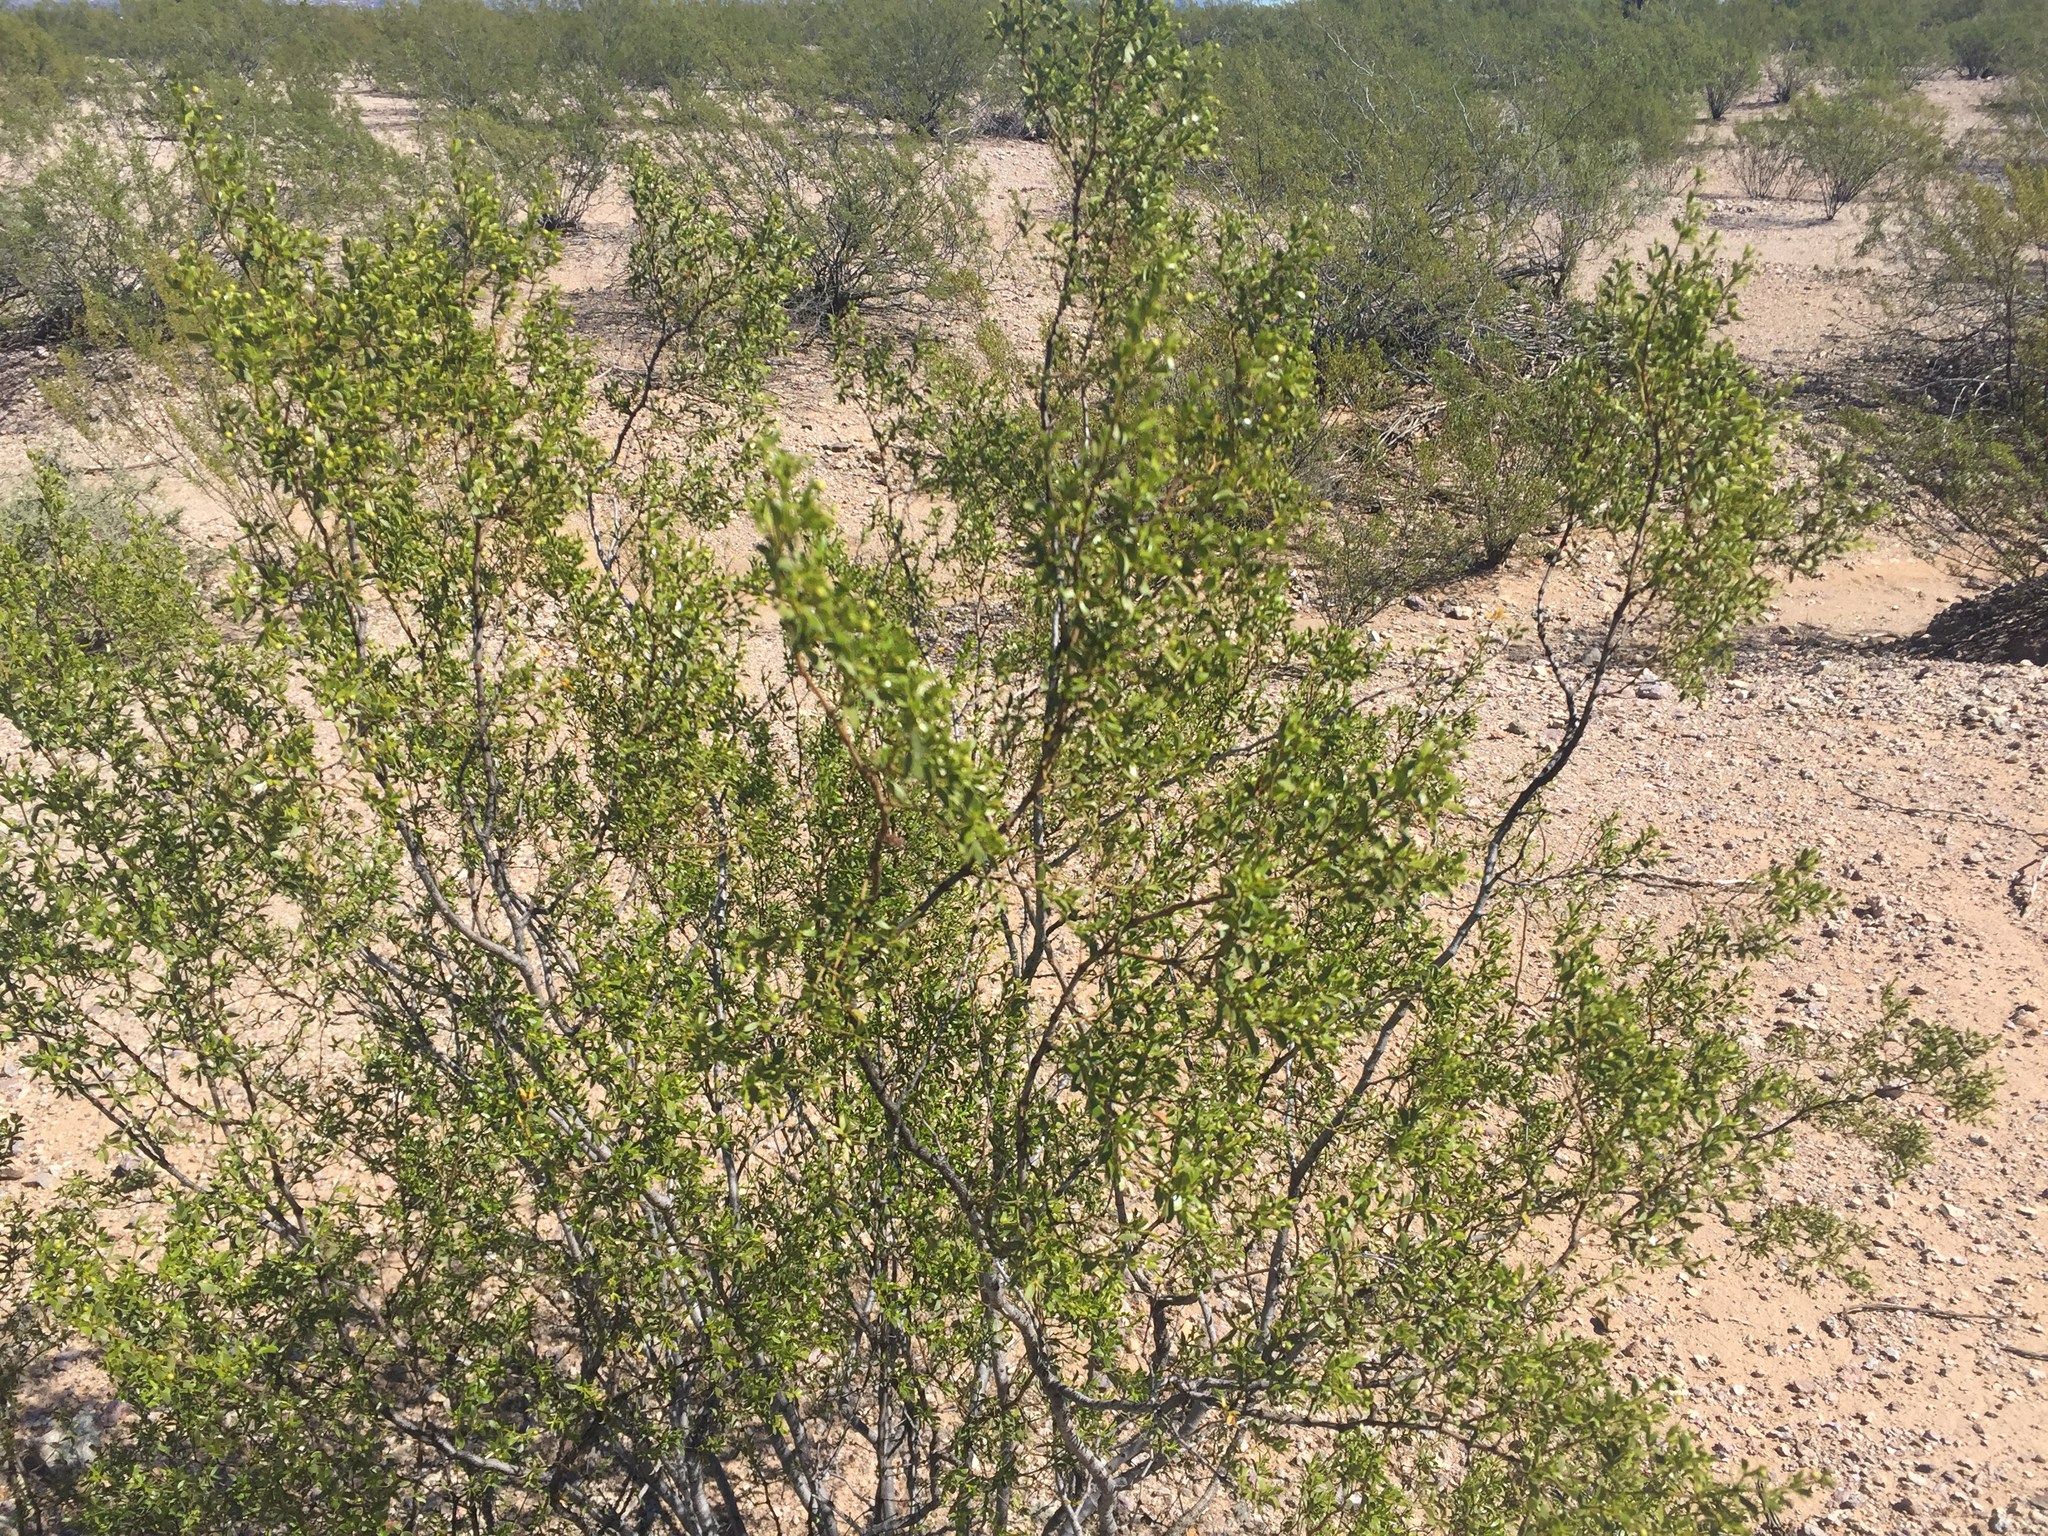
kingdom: Plantae
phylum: Tracheophyta
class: Magnoliopsida
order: Zygophyllales
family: Zygophyllaceae
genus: Larrea
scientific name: Larrea tridentata
